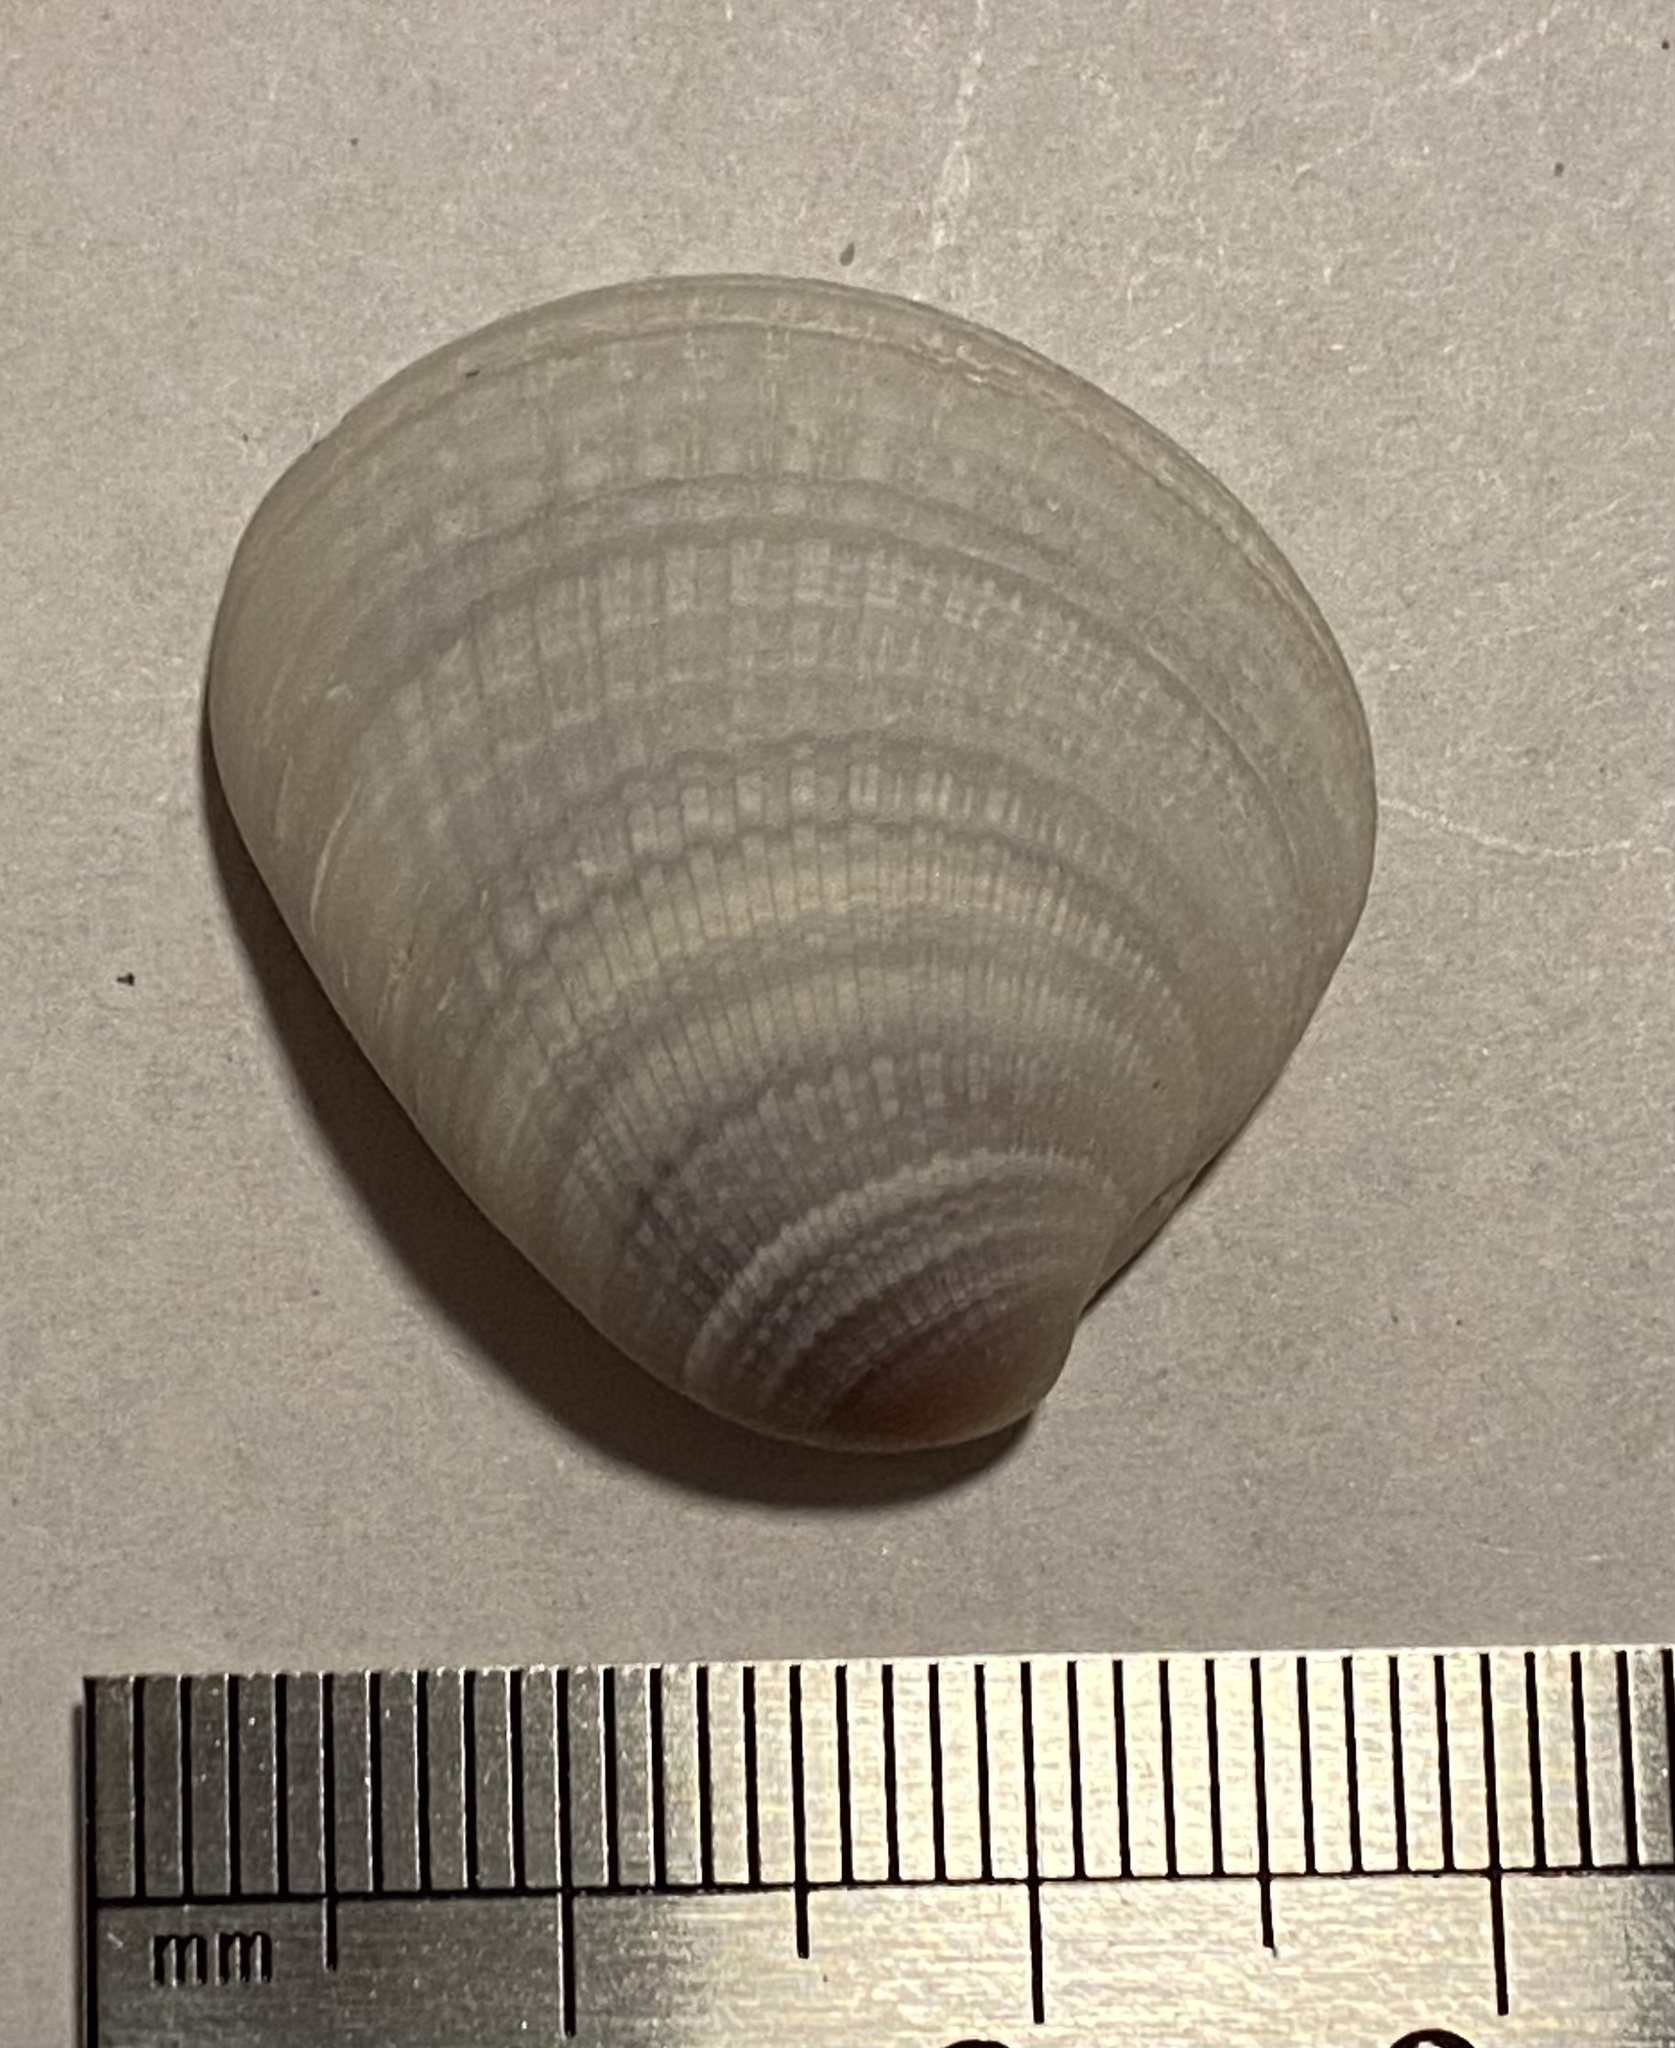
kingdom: Animalia
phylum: Mollusca
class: Bivalvia
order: Venerida
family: Veneridae
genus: Chione
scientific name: Chione elevata
